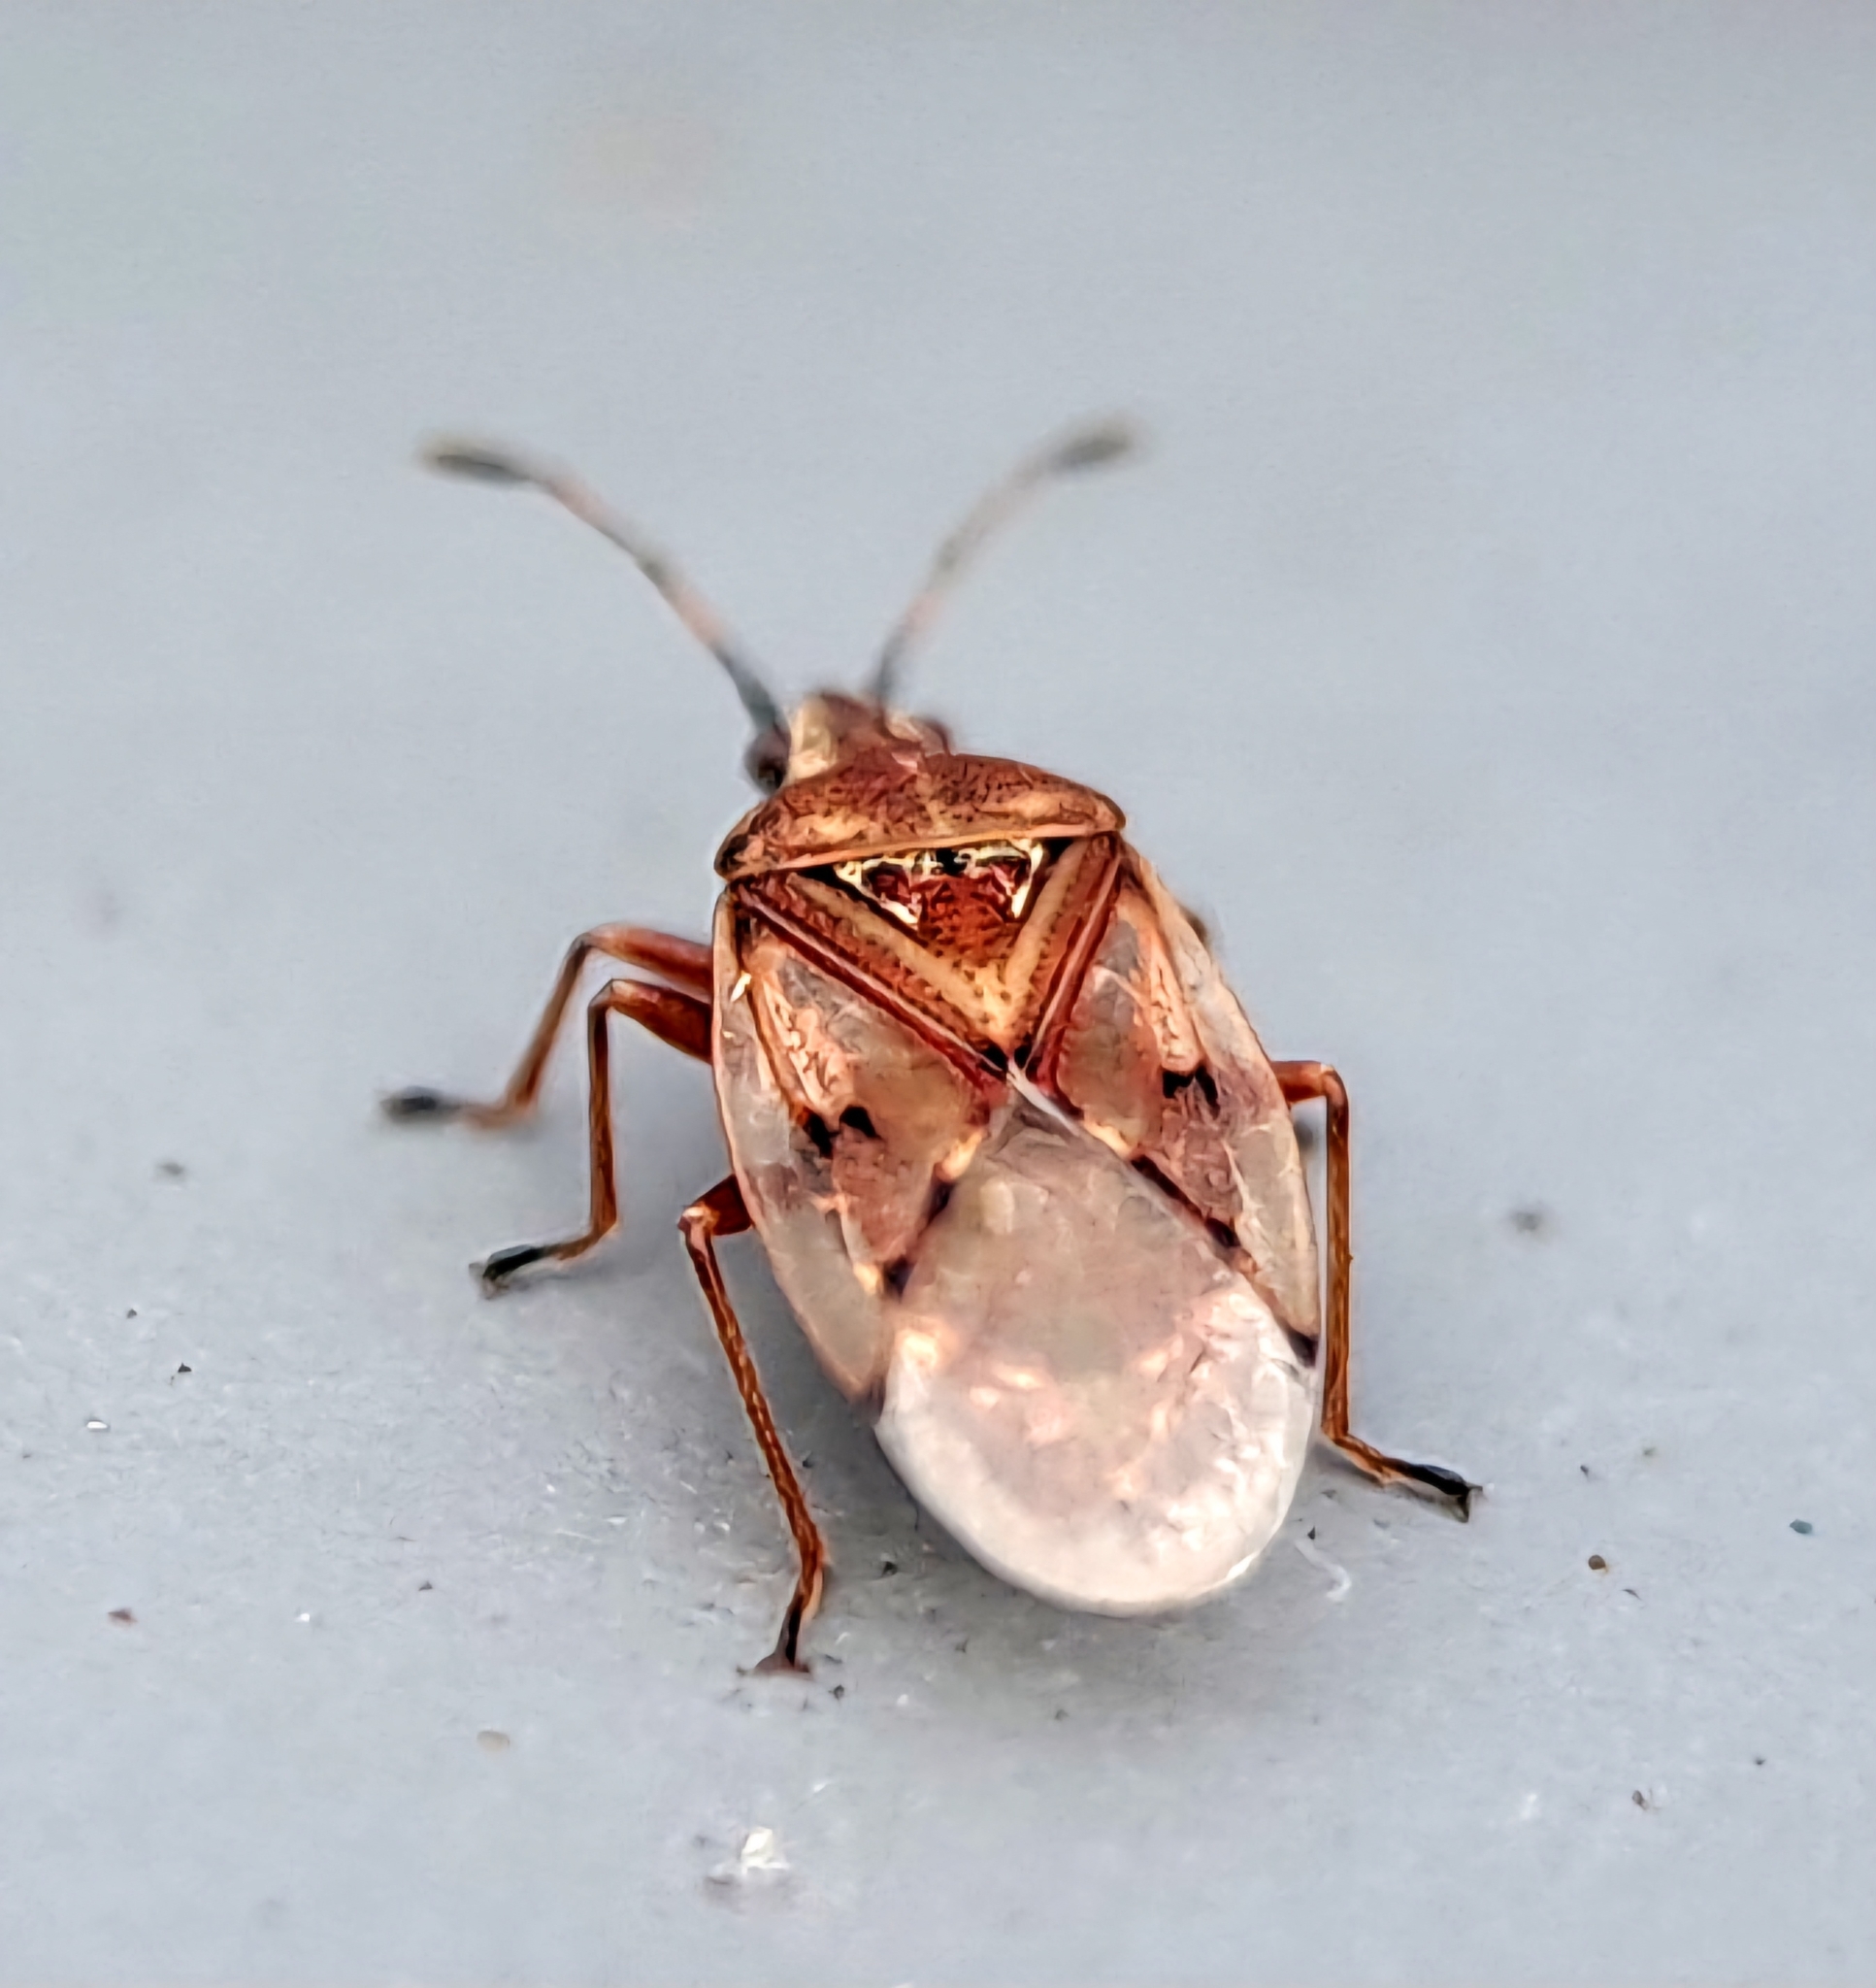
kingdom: Animalia
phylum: Arthropoda
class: Insecta
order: Hemiptera
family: Lygaeidae
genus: Kleidocerys
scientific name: Kleidocerys resedae
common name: Birch catkin bug
